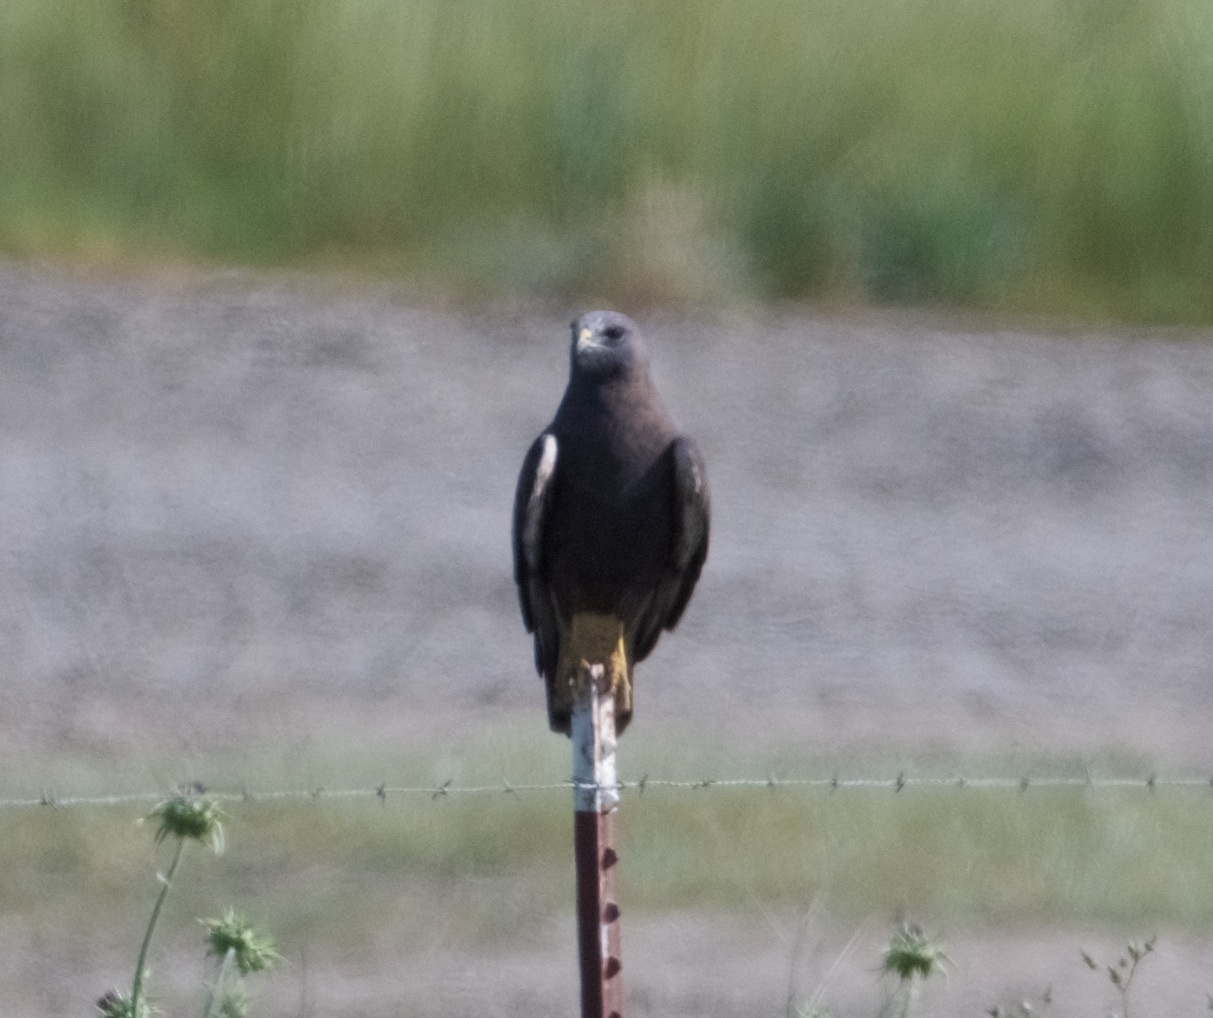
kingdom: Animalia
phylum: Chordata
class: Aves
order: Accipitriformes
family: Accipitridae
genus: Buteo
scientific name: Buteo swainsoni
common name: Swainson's hawk
